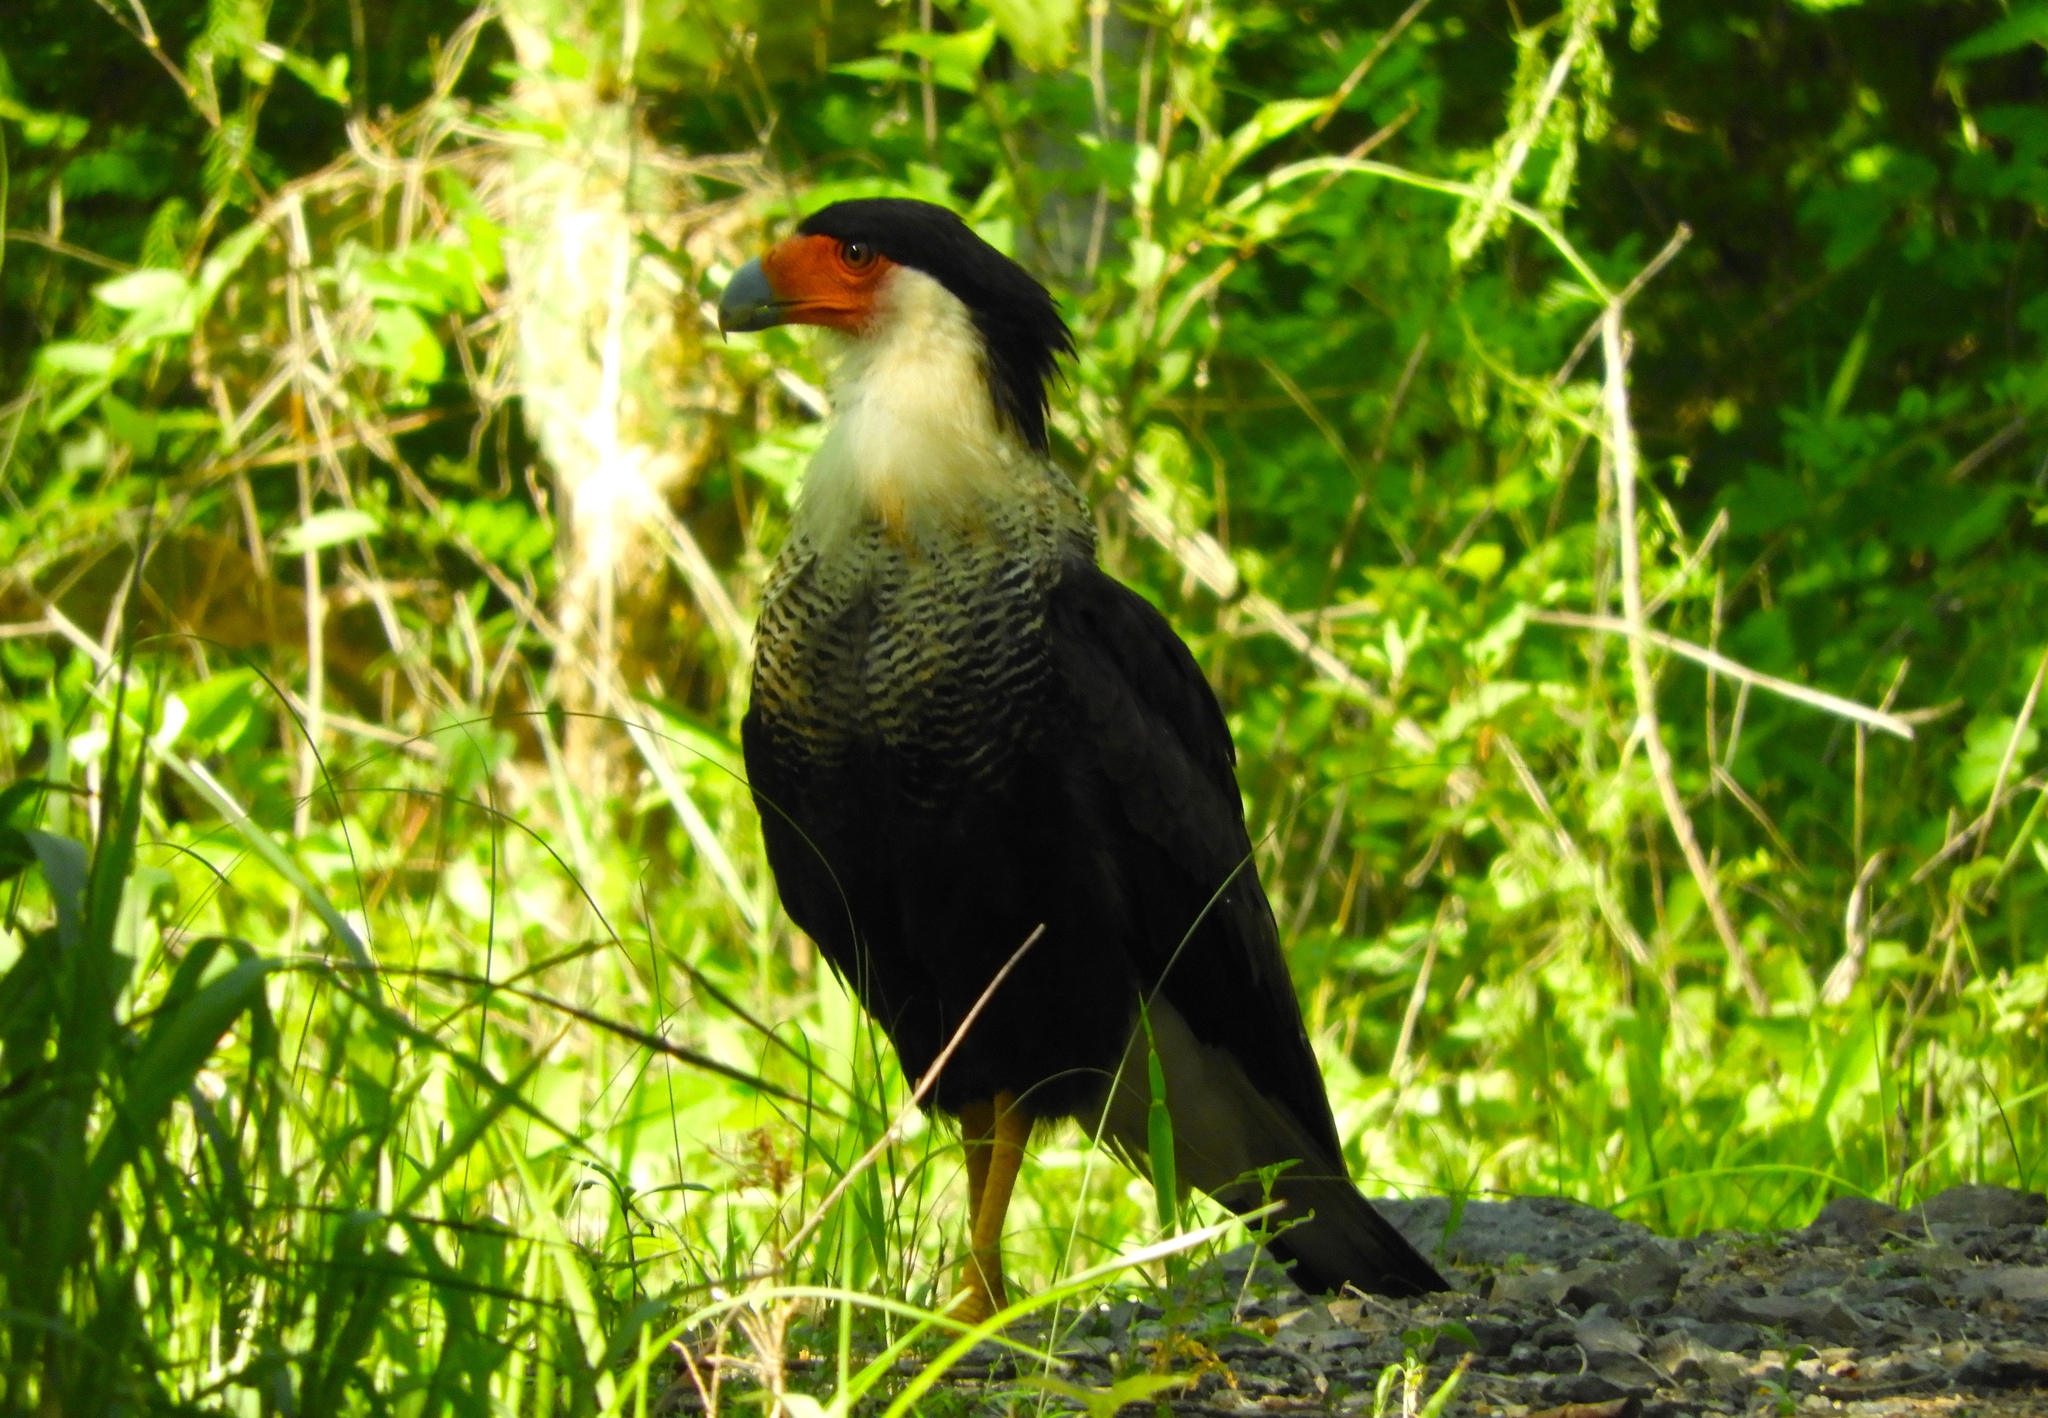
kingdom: Animalia
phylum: Chordata
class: Aves
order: Falconiformes
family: Falconidae
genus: Caracara
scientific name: Caracara plancus
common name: Southern caracara
